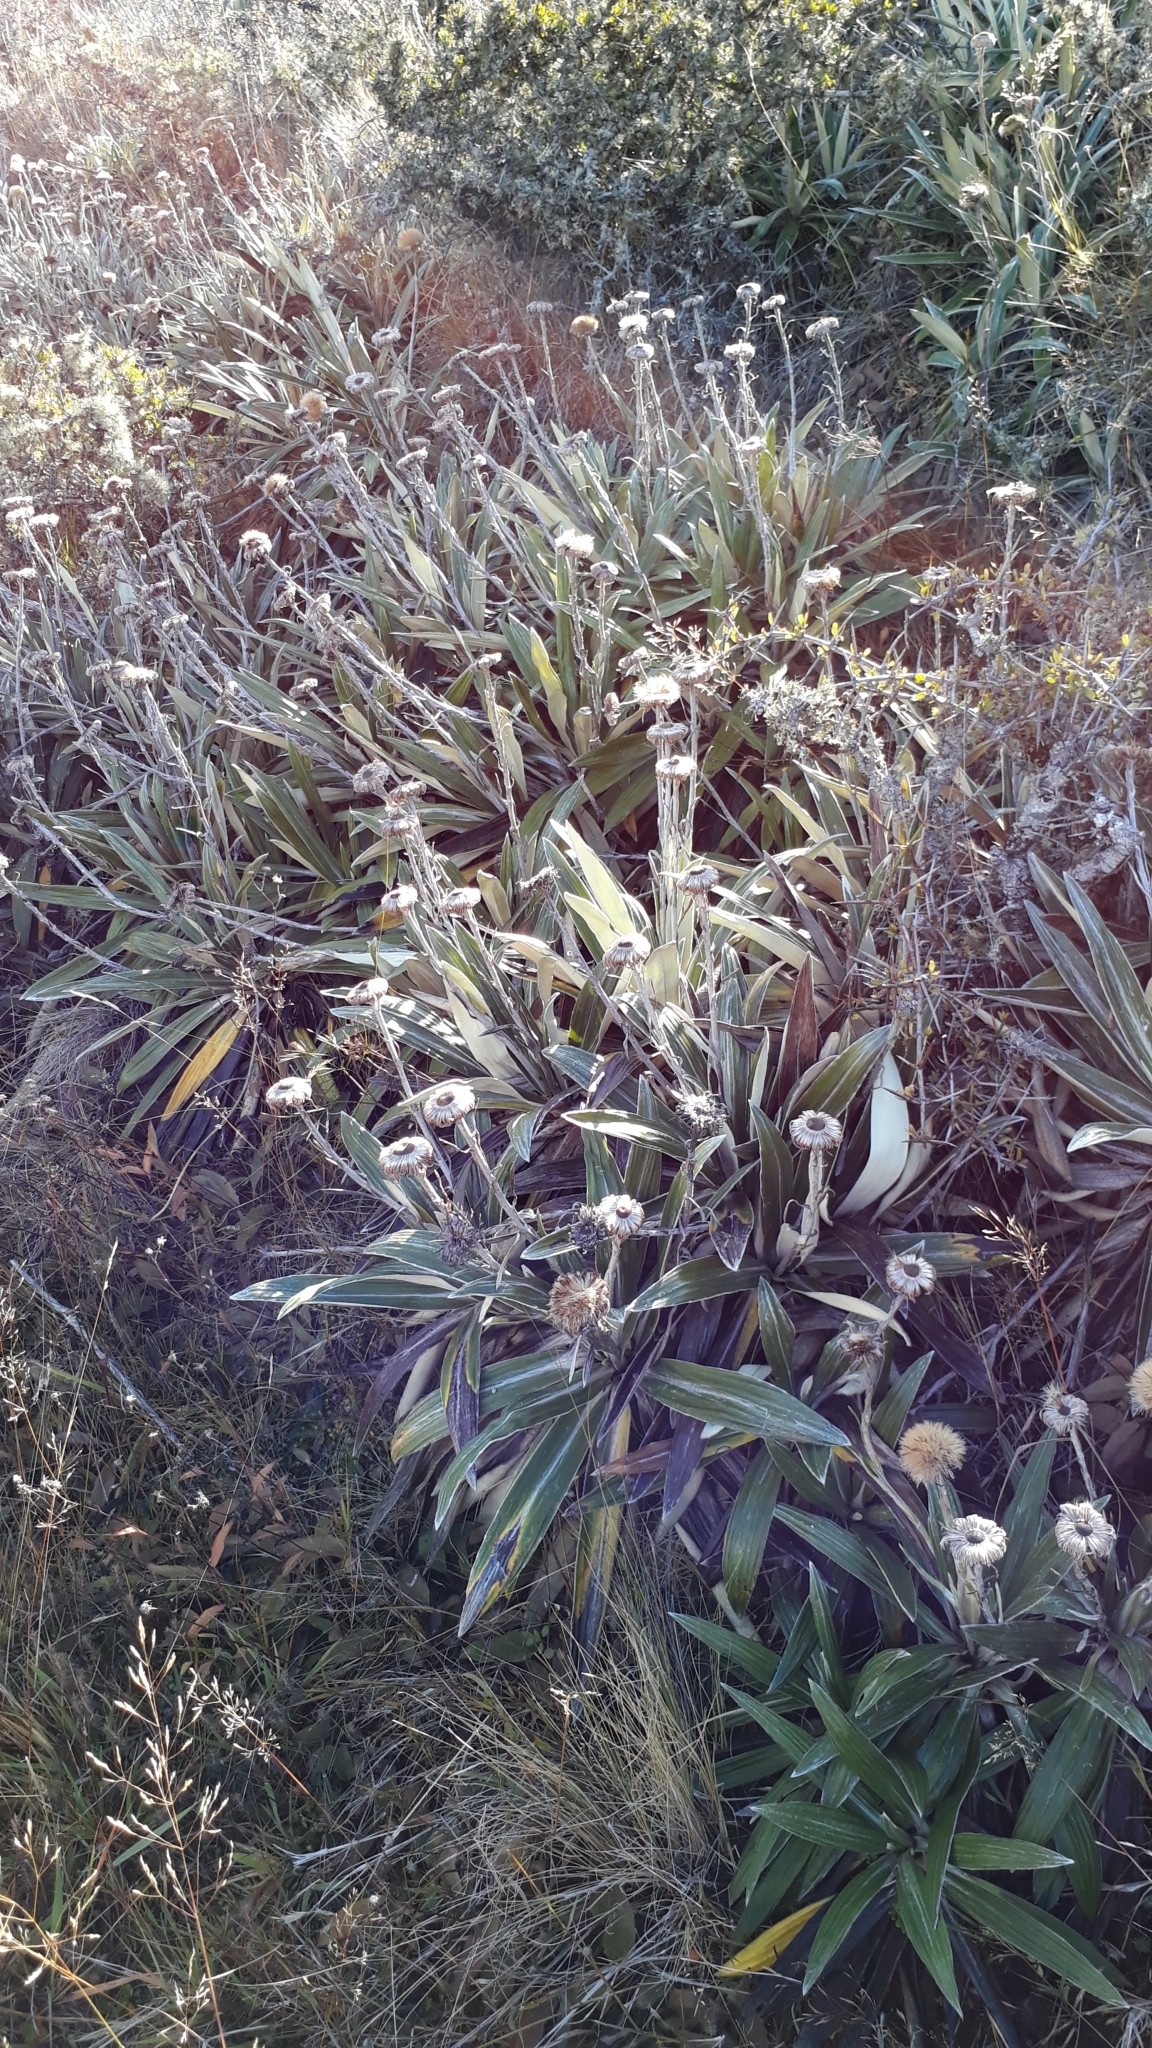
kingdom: Plantae
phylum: Tracheophyta
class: Magnoliopsida
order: Asterales
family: Asteraceae
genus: Celmisia
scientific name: Celmisia semicordata
